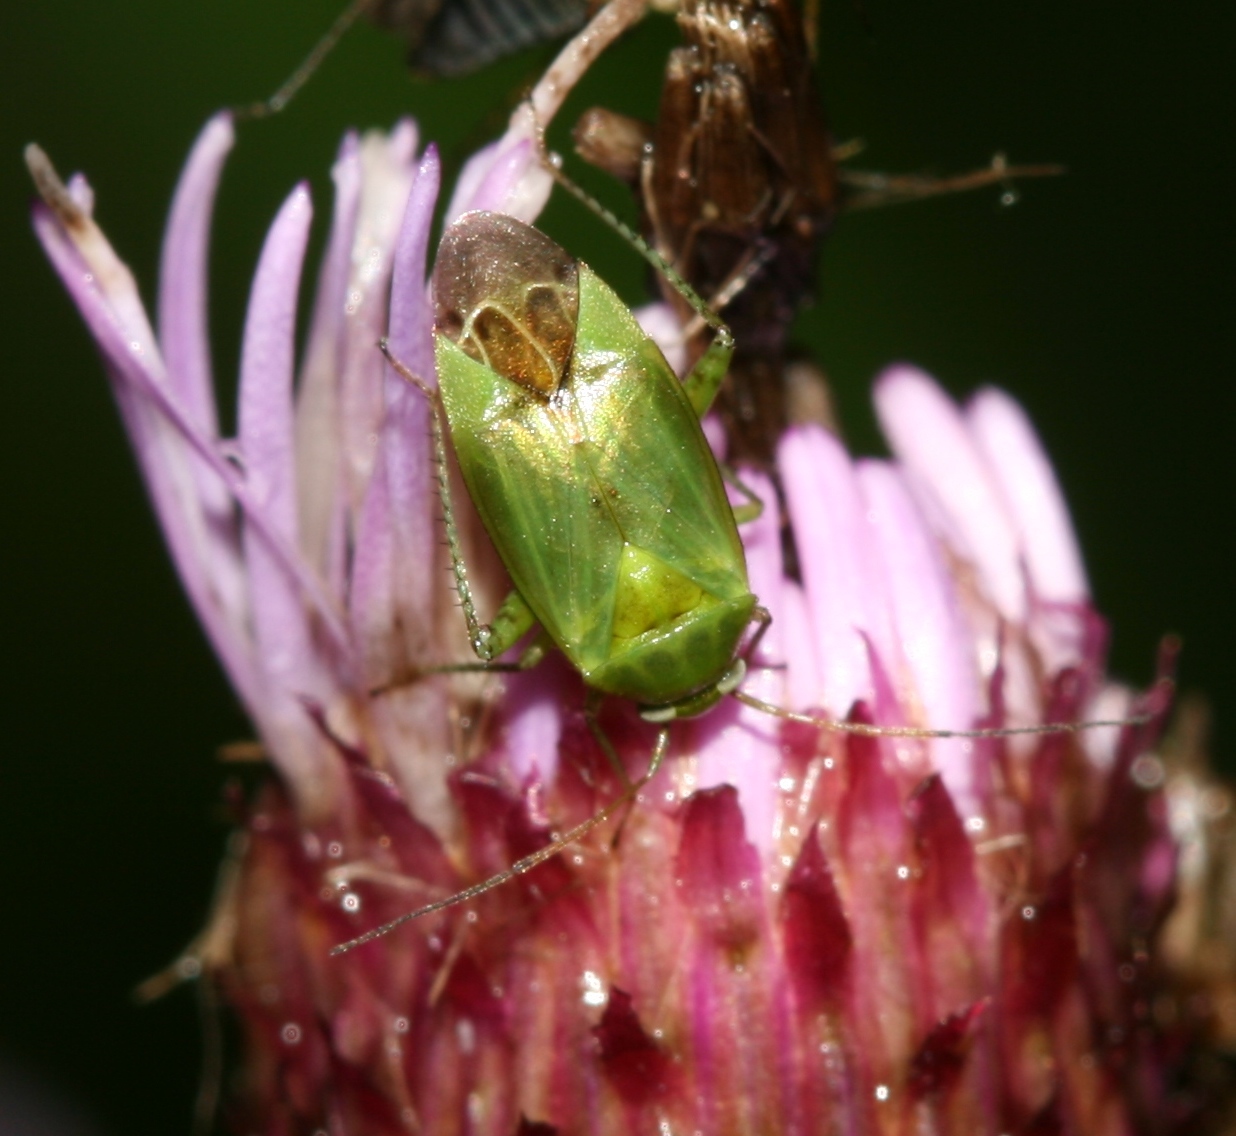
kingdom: Animalia
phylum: Arthropoda
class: Insecta
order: Hemiptera
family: Miridae
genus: Apolygus
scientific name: Apolygus lucorum
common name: Plant bug
